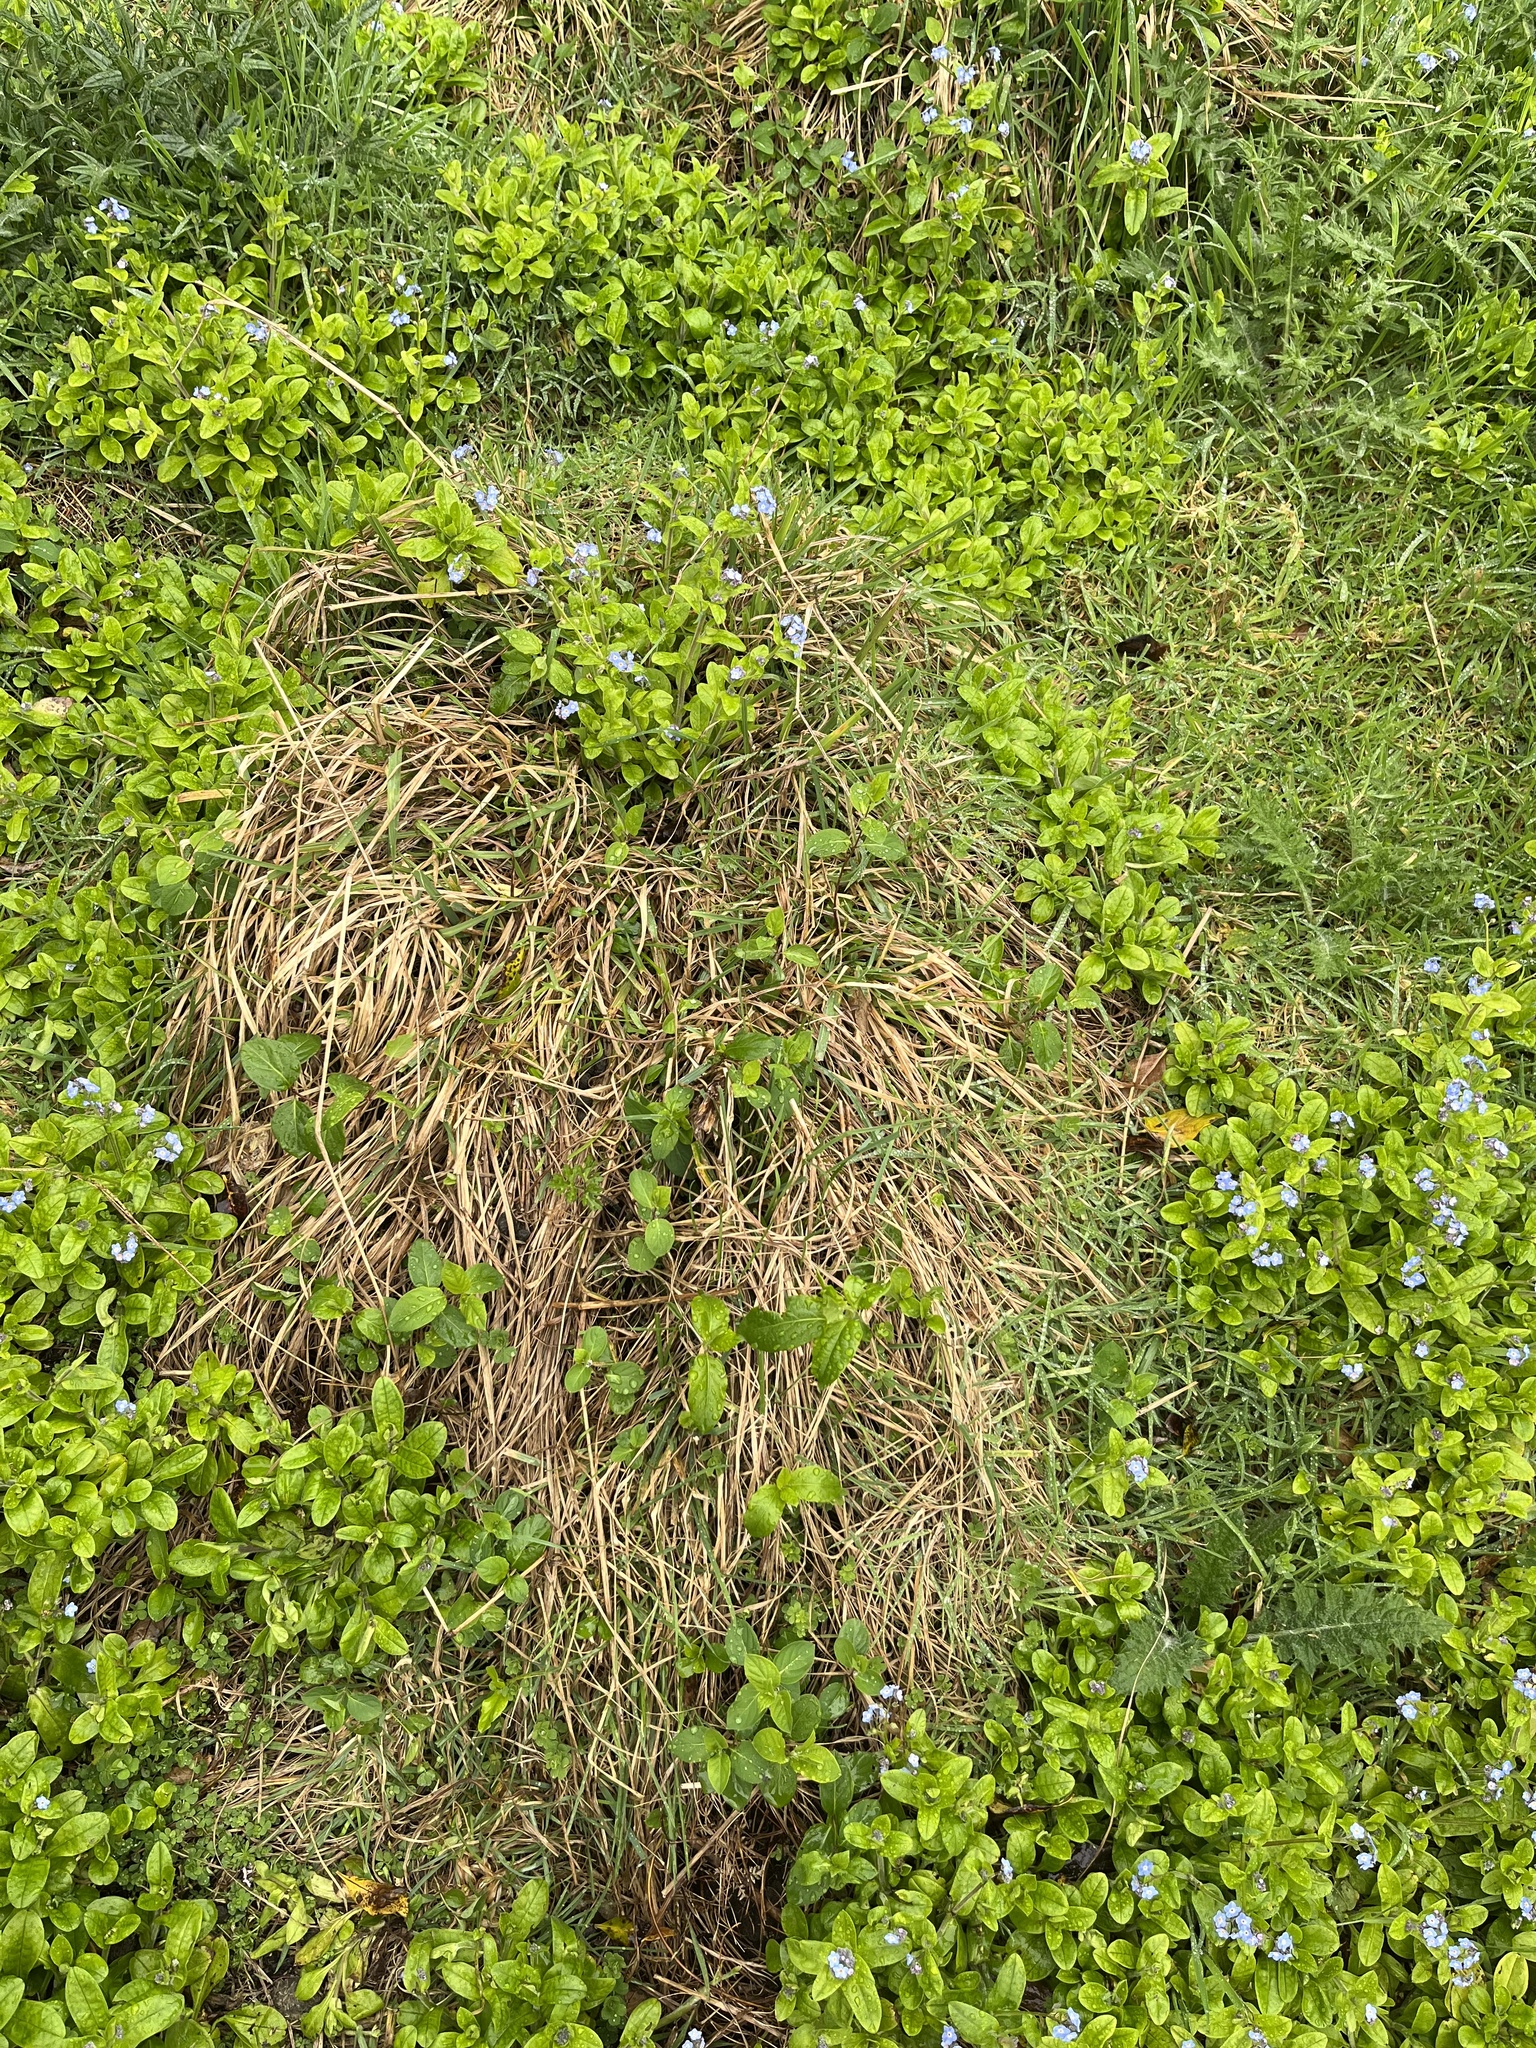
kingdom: Plantae
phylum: Tracheophyta
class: Magnoliopsida
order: Dipsacales
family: Caprifoliaceae
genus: Lonicera
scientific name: Lonicera japonica
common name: Japanese honeysuckle
